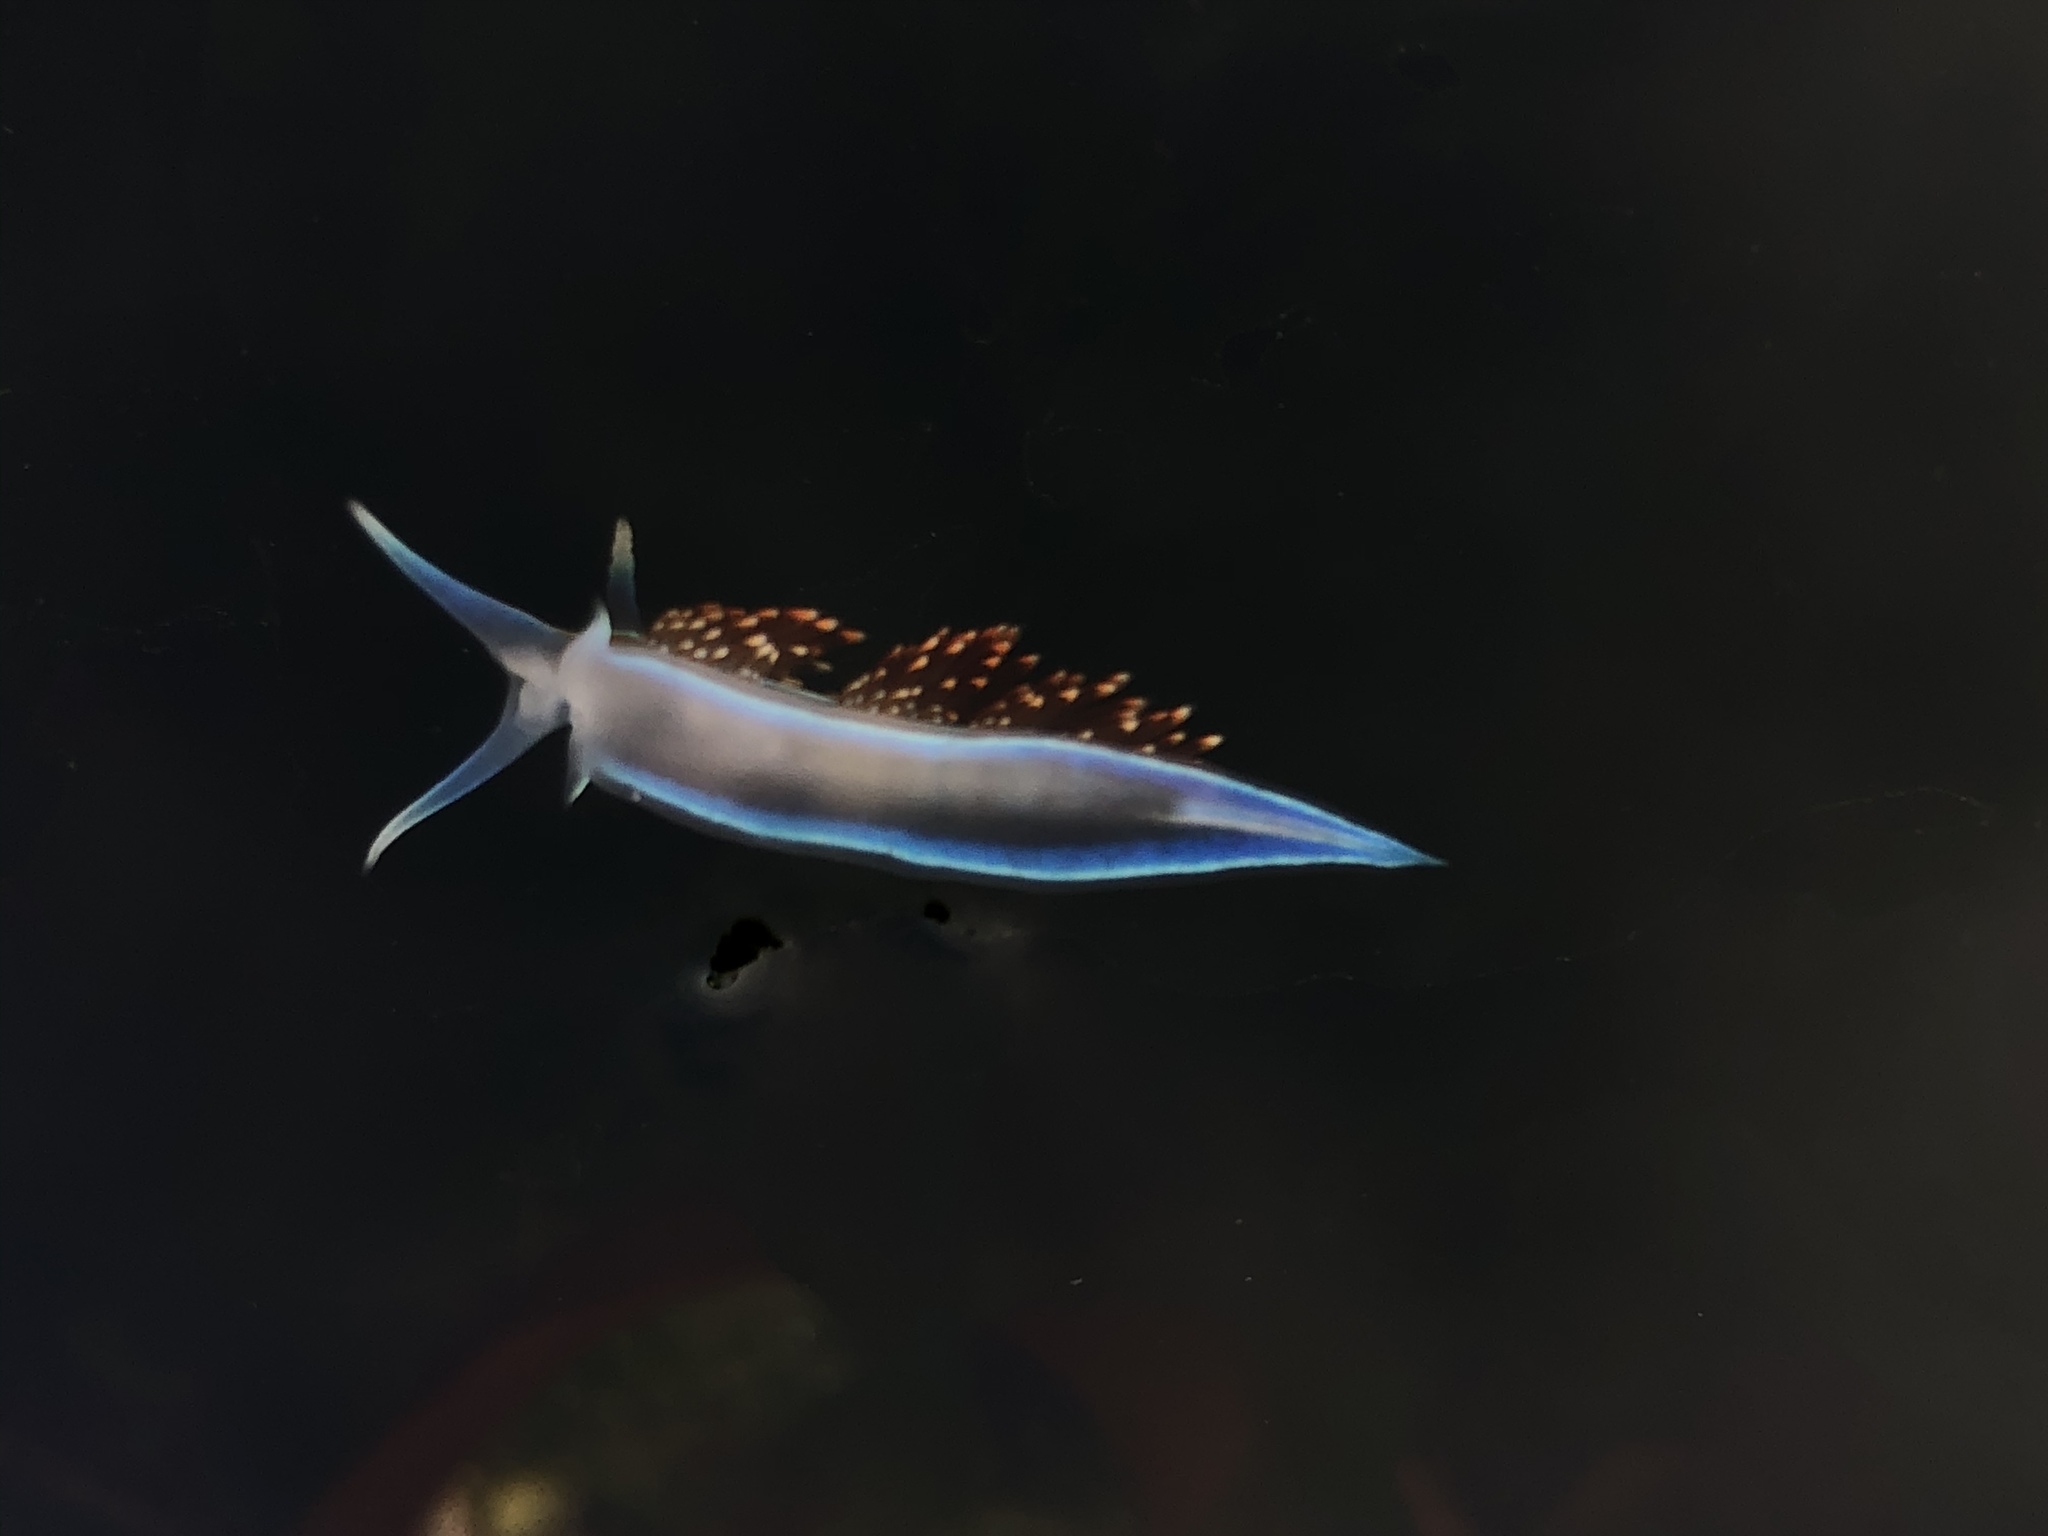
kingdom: Animalia
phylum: Mollusca
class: Gastropoda
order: Nudibranchia
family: Myrrhinidae
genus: Hermissenda
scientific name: Hermissenda opalescens
